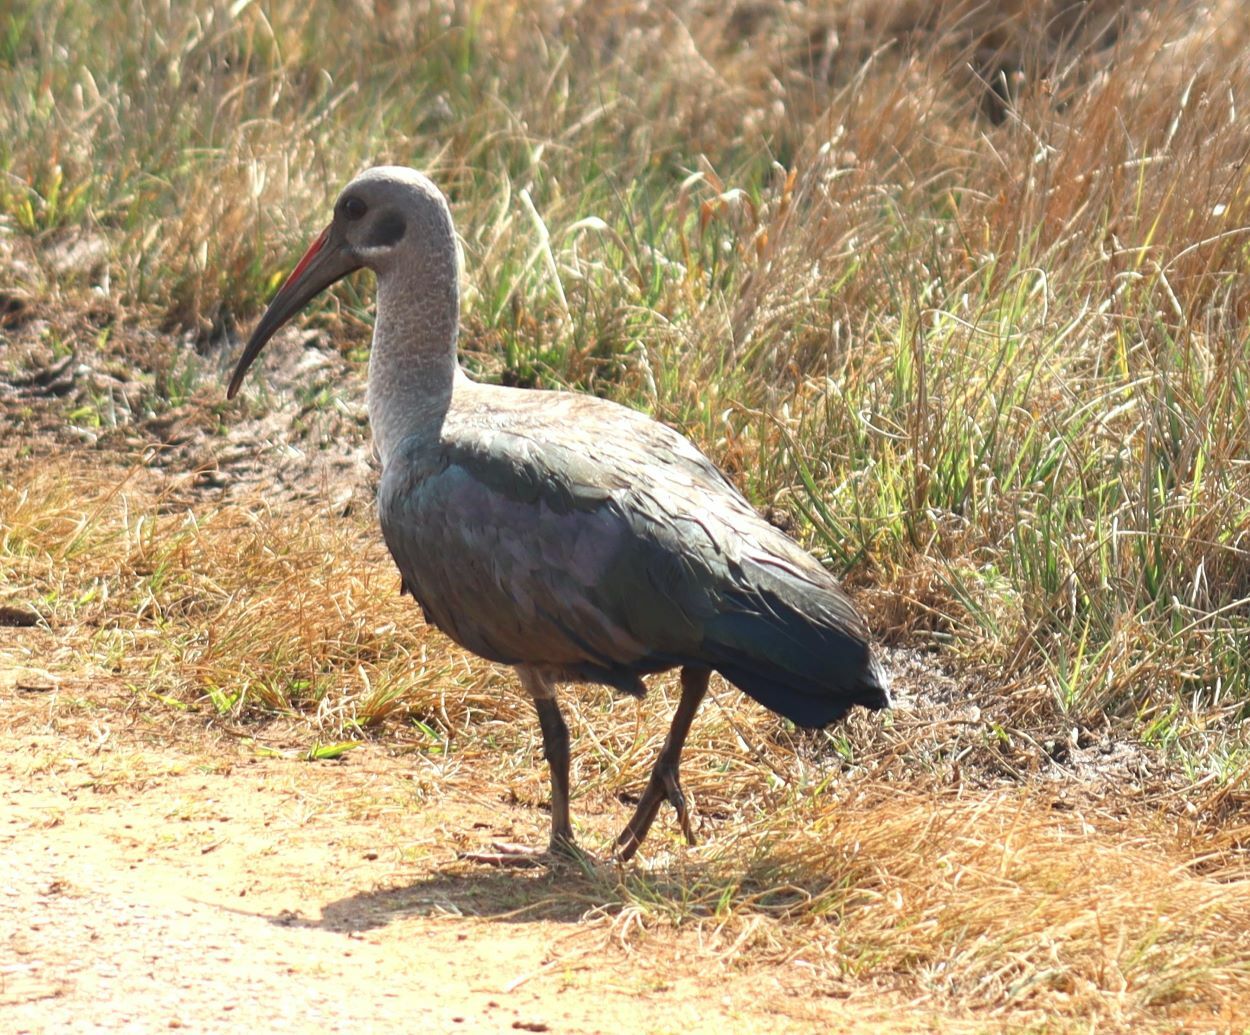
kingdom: Animalia
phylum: Chordata
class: Aves
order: Pelecaniformes
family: Threskiornithidae
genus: Bostrychia
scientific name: Bostrychia hagedash
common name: Hadada ibis
